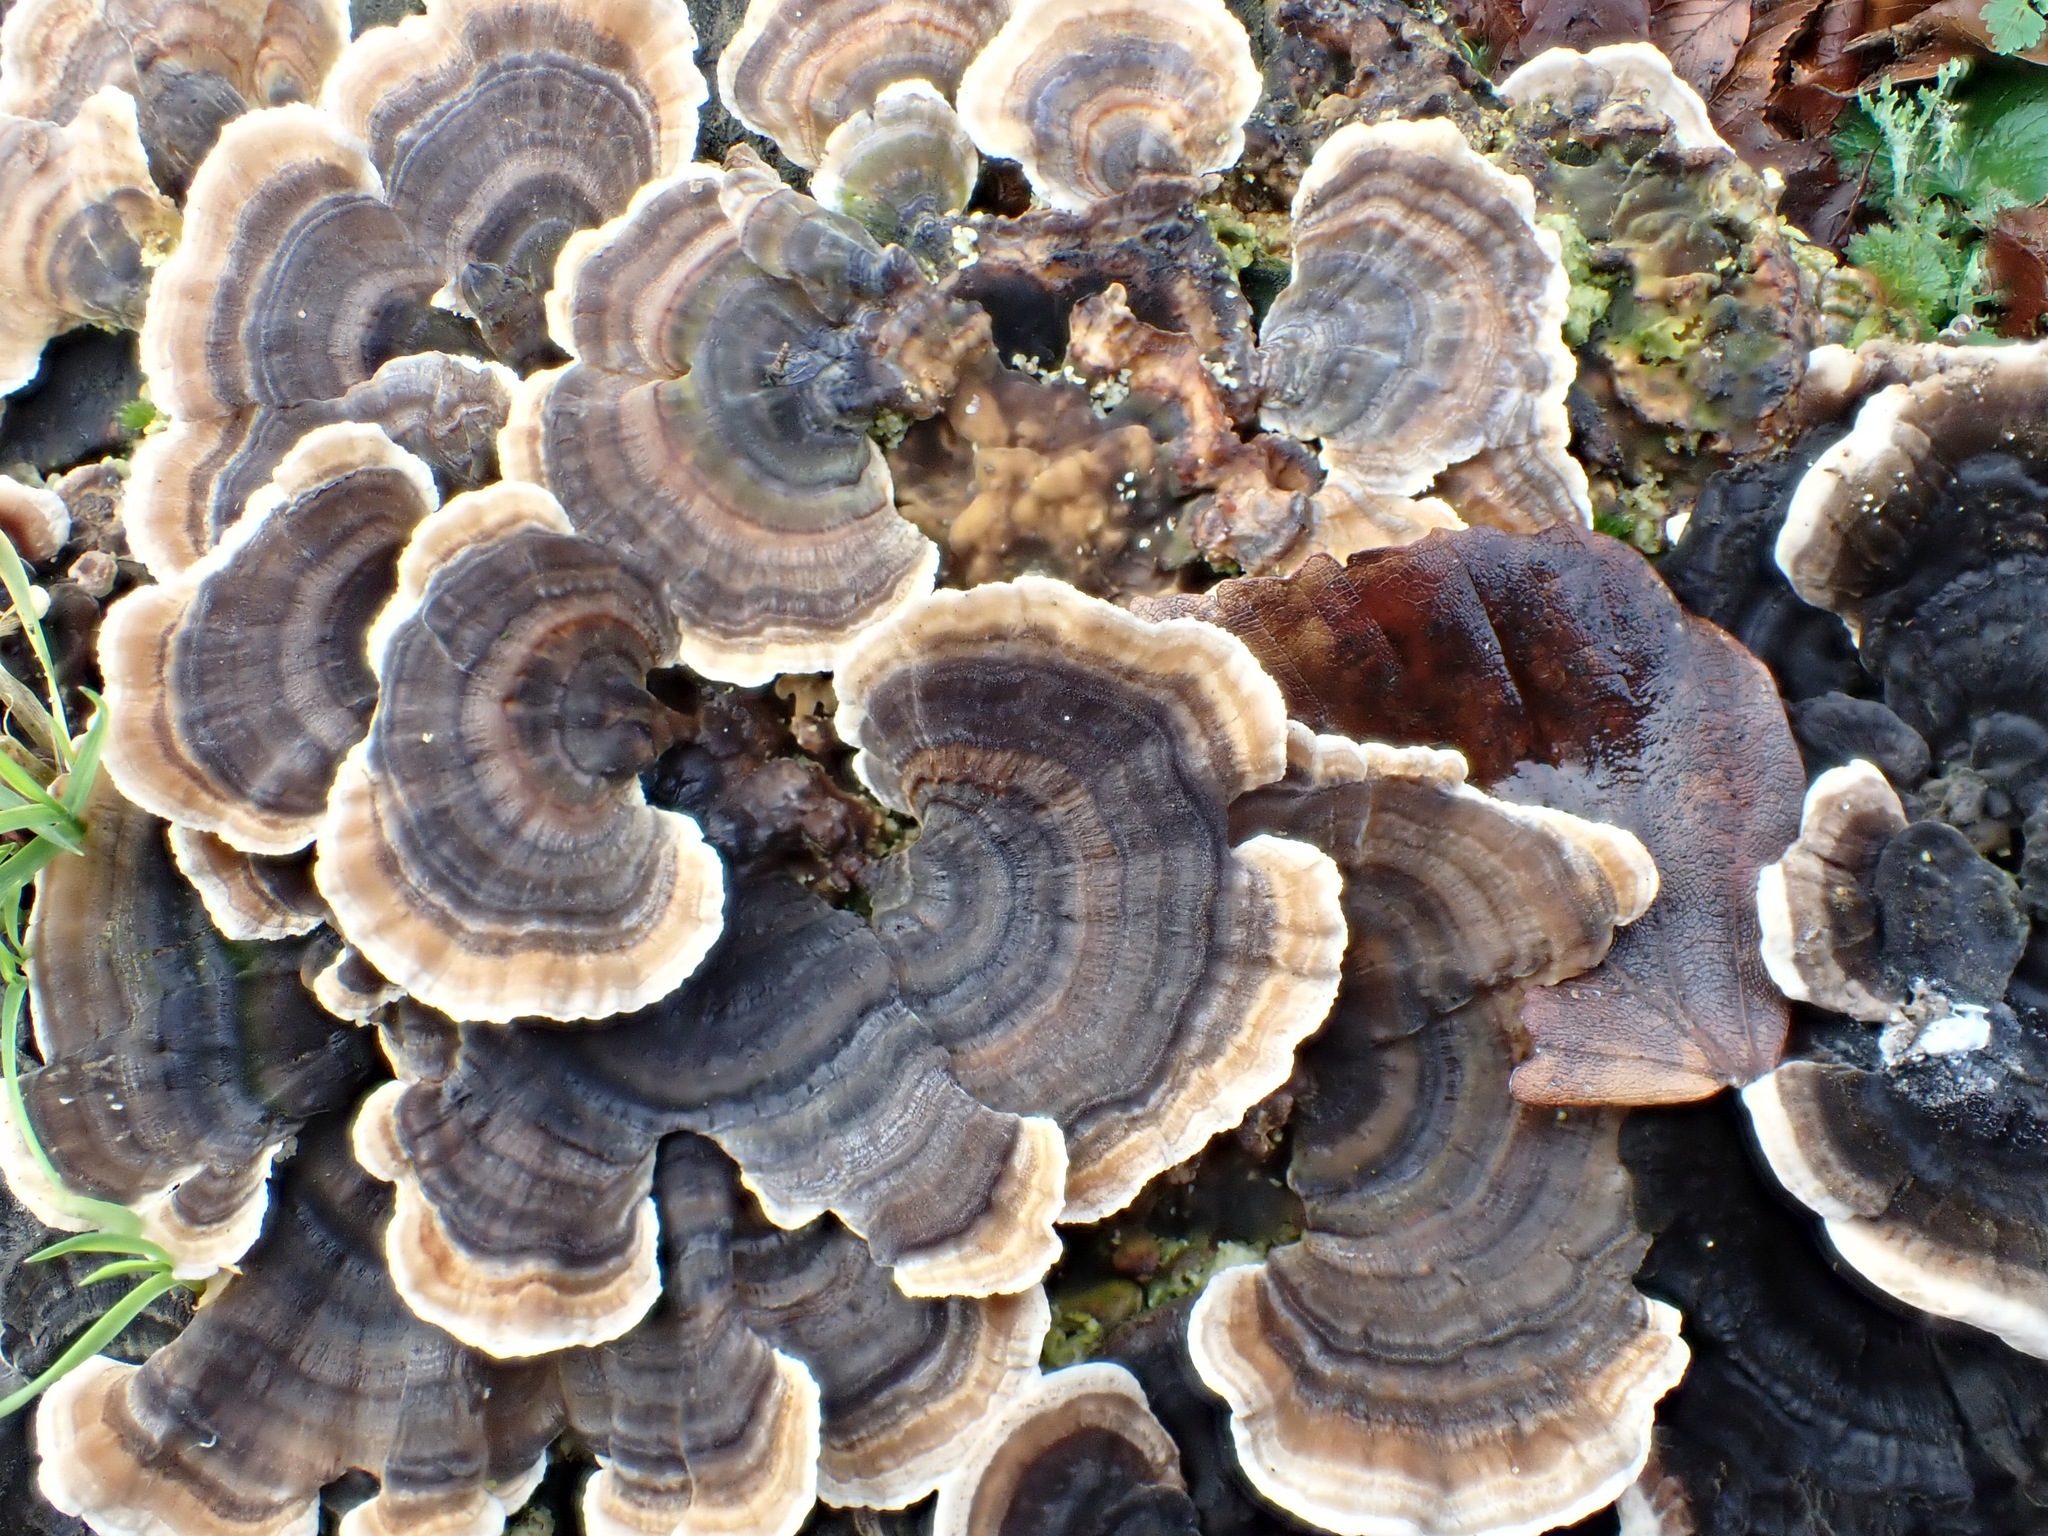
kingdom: Fungi
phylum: Basidiomycota
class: Agaricomycetes
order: Polyporales
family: Polyporaceae
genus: Trametes
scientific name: Trametes versicolor
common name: Turkeytail
